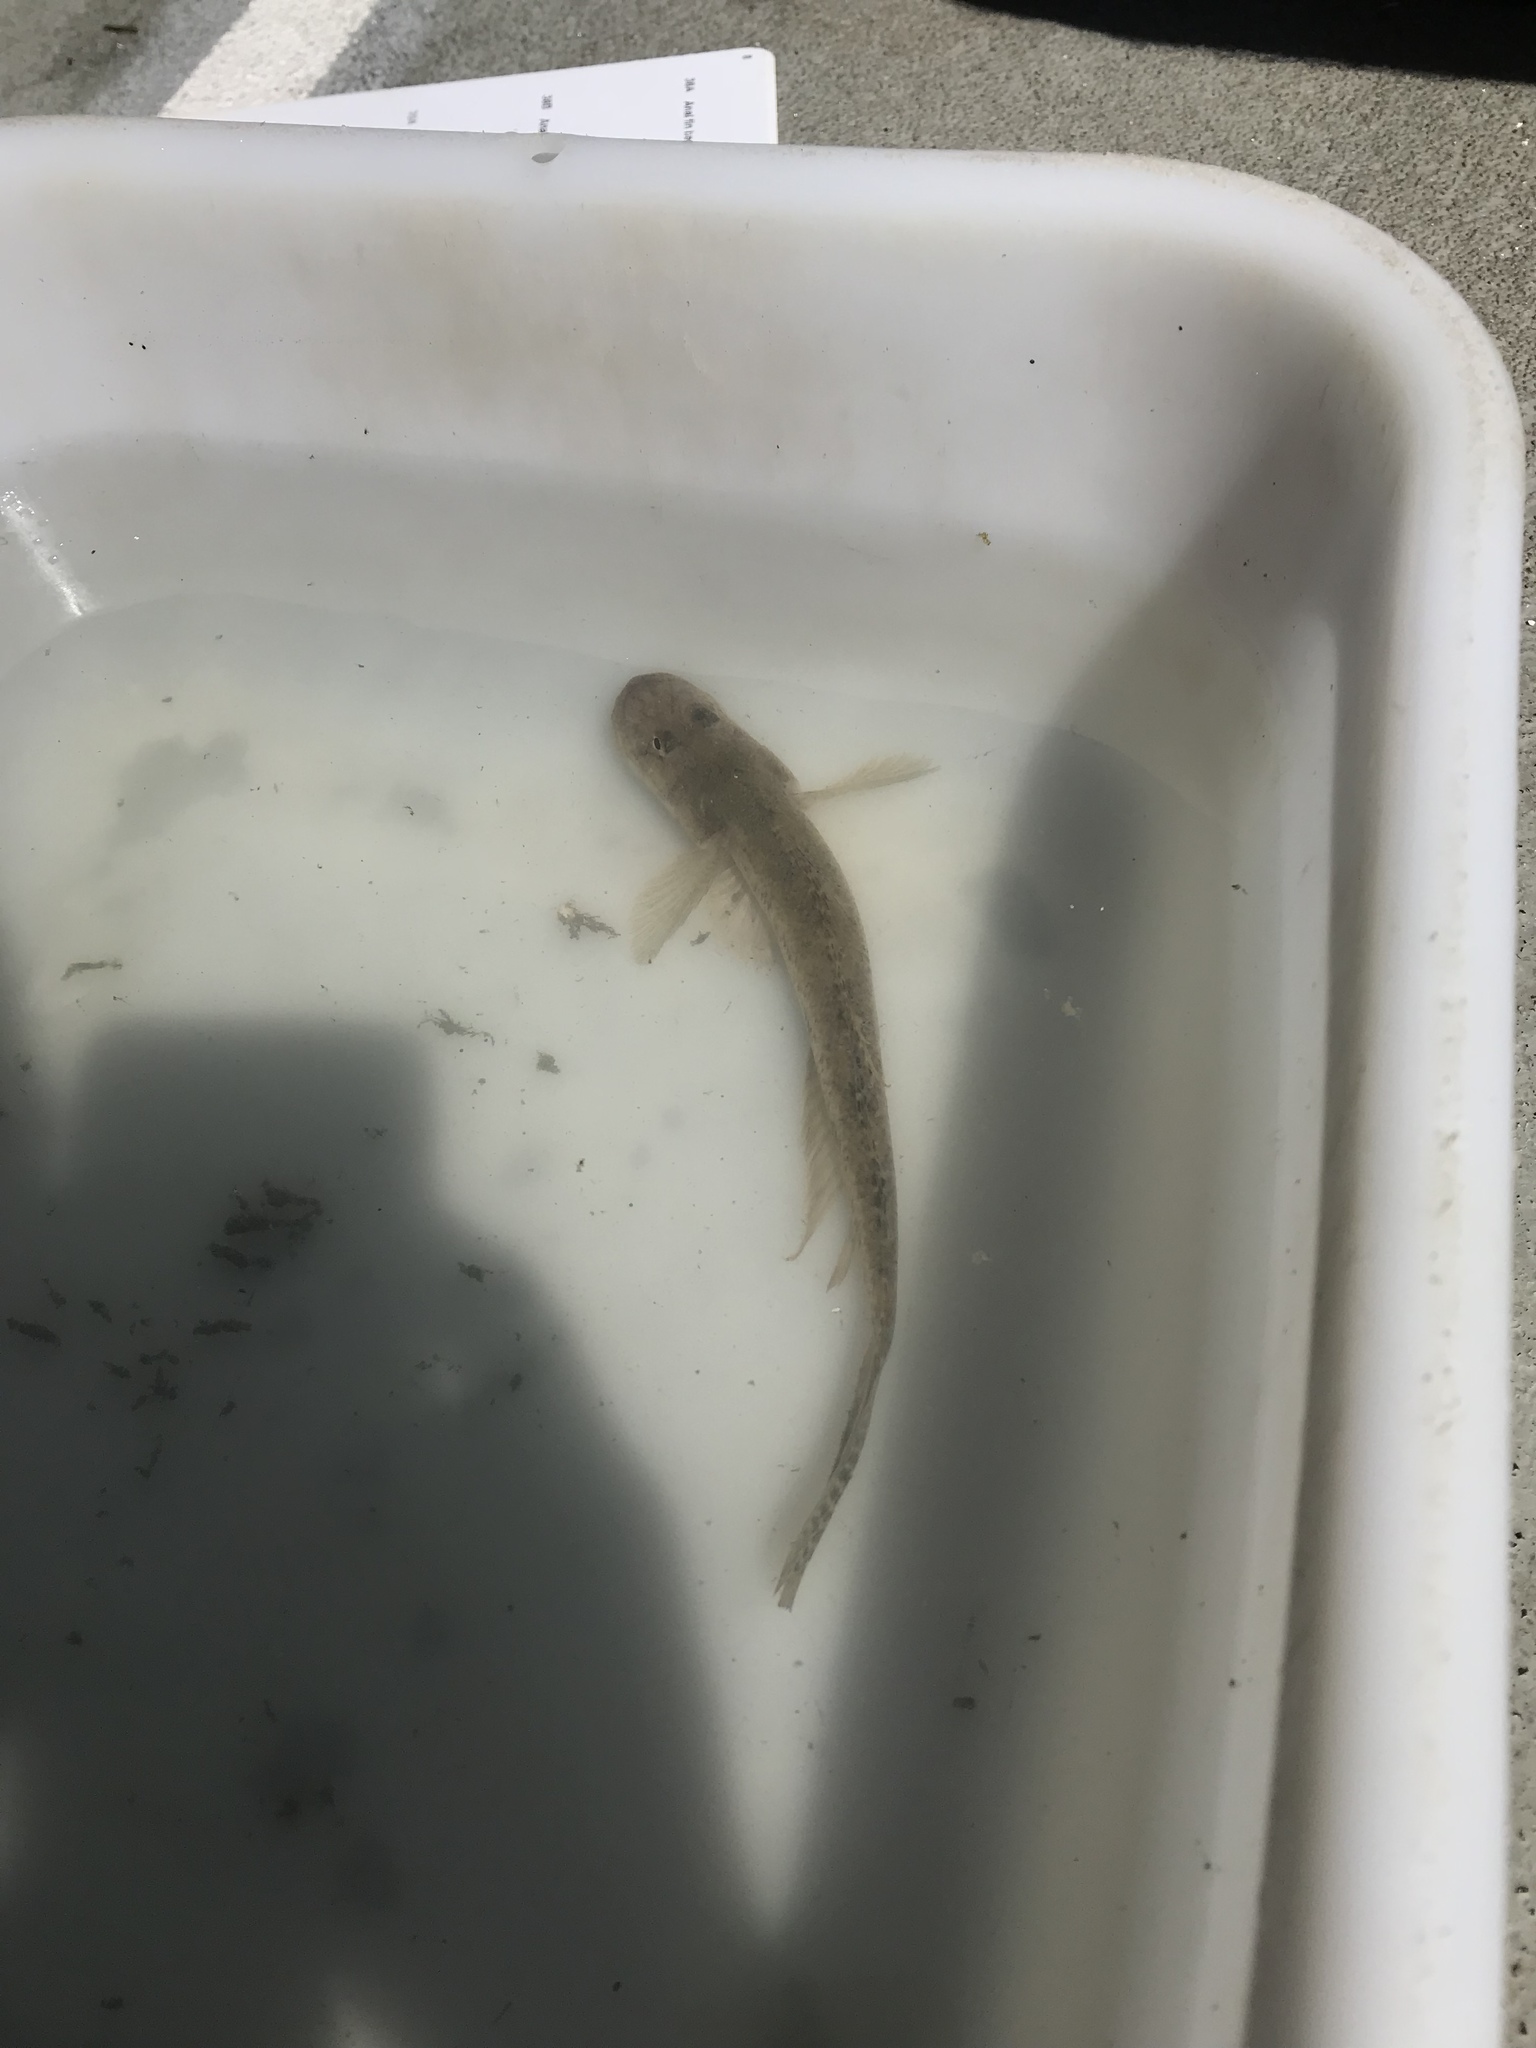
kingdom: Animalia
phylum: Chordata
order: Perciformes
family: Gobiidae
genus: Acanthogobius
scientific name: Acanthogobius flavimanus
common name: Yellowfin goby
